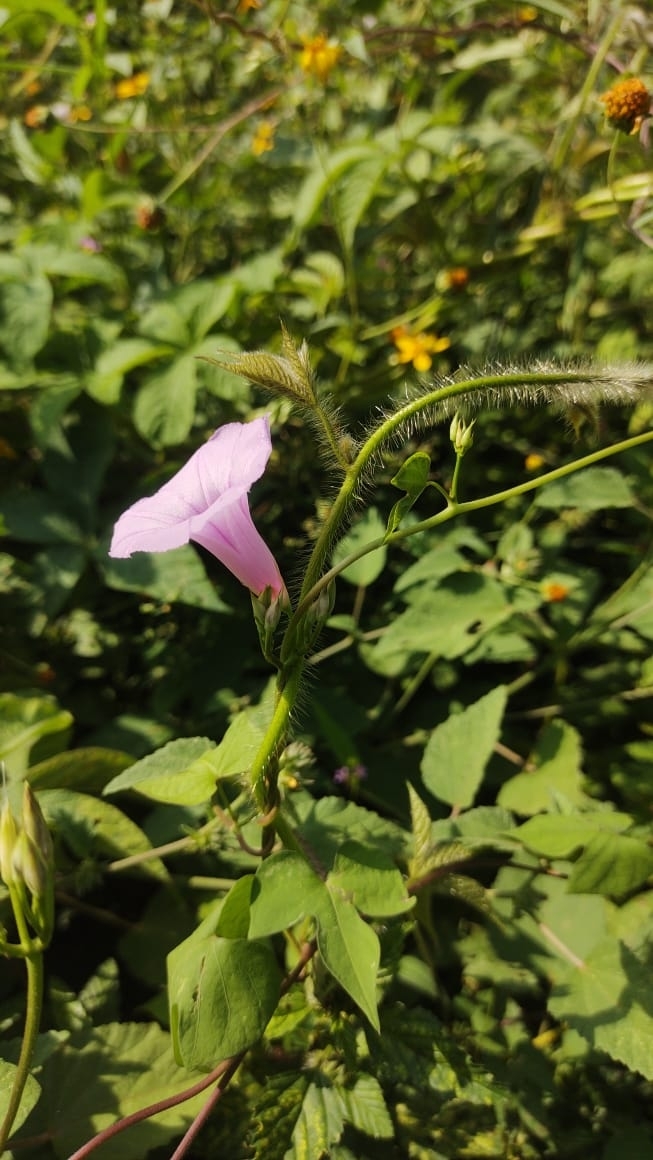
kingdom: Plantae
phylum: Tracheophyta
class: Magnoliopsida
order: Solanales
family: Convolvulaceae
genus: Ipomoea
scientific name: Ipomoea trifida
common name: Cotton morningglory
